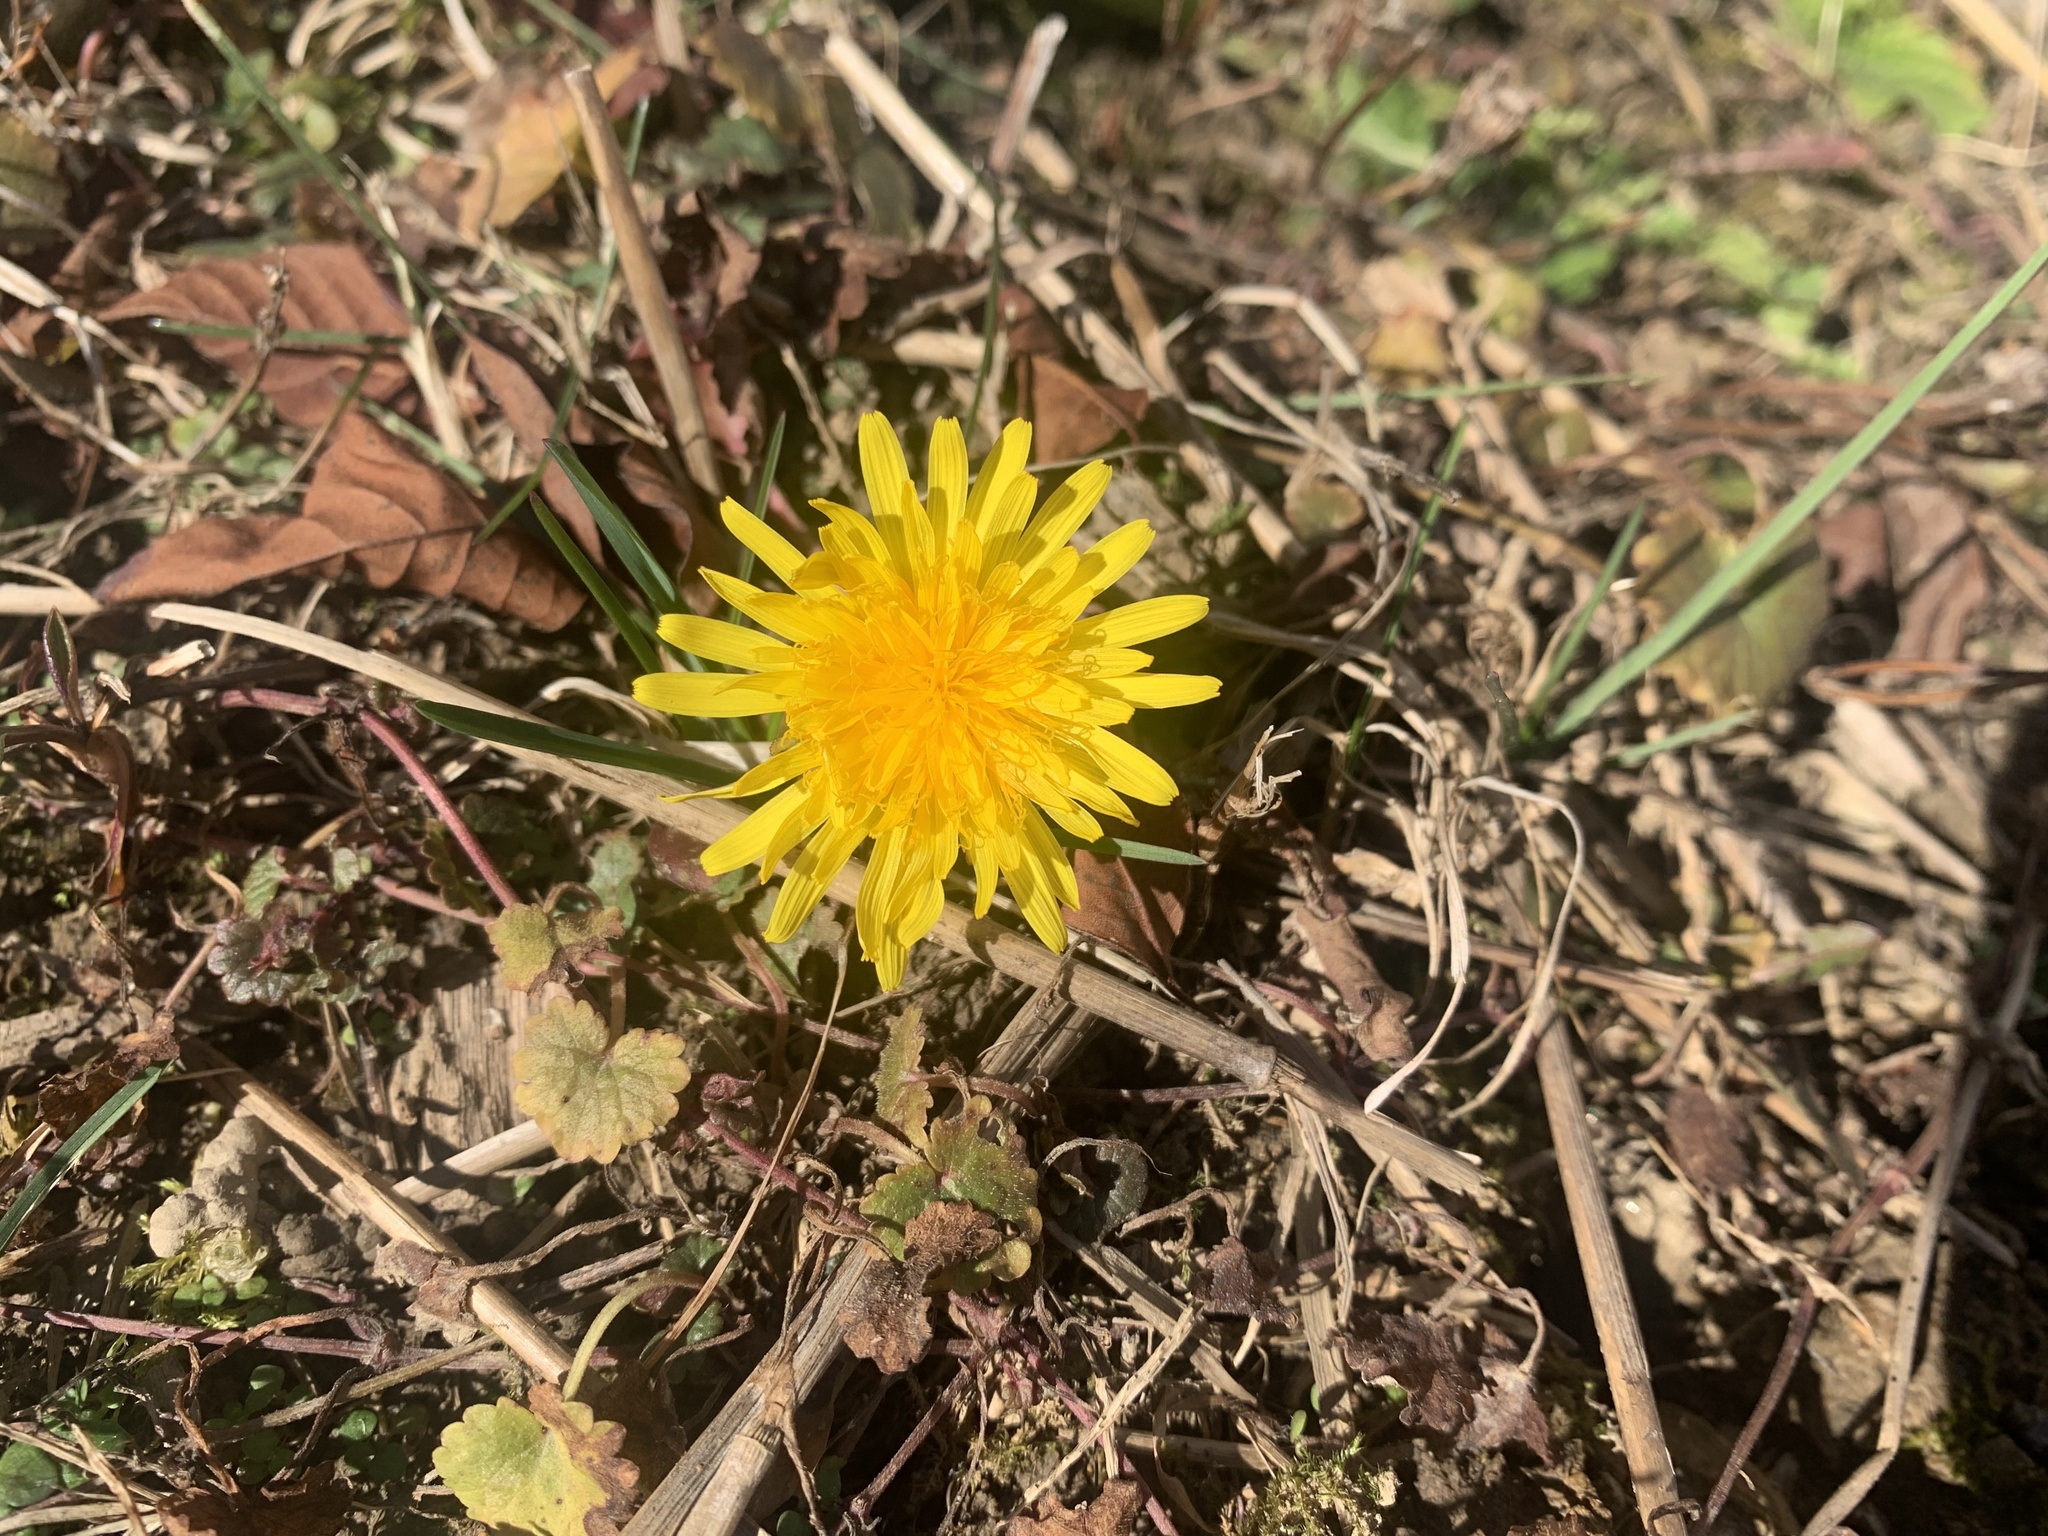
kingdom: Plantae
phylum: Tracheophyta
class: Magnoliopsida
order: Asterales
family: Asteraceae
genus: Taraxacum
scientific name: Taraxacum officinale
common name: Common dandelion
